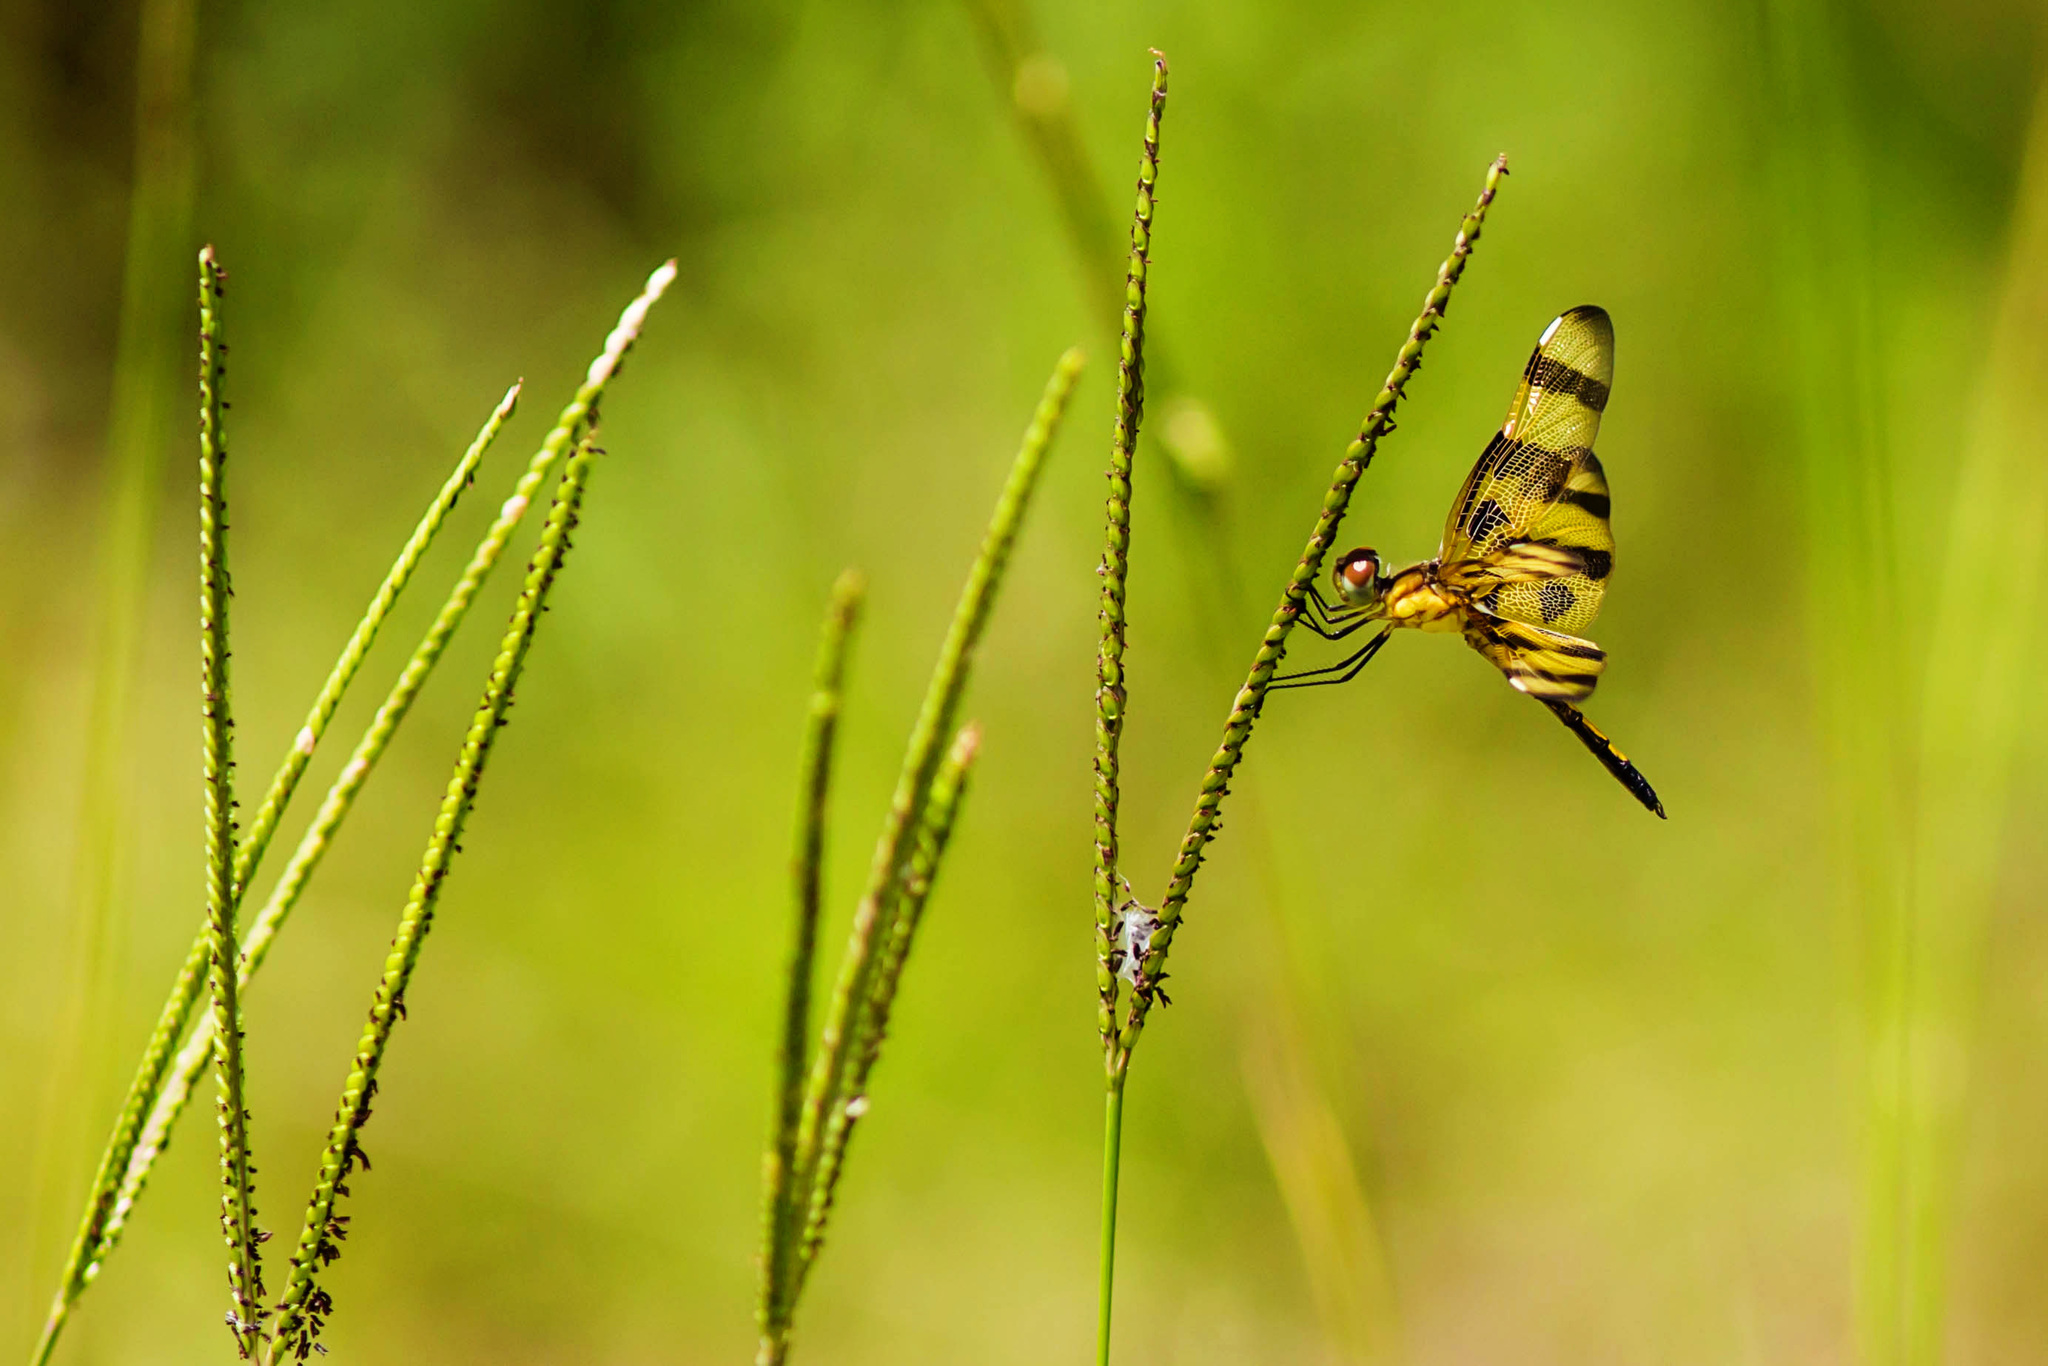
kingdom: Animalia
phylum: Arthropoda
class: Insecta
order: Odonata
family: Libellulidae
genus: Celithemis
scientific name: Celithemis eponina
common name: Halloween pennant
